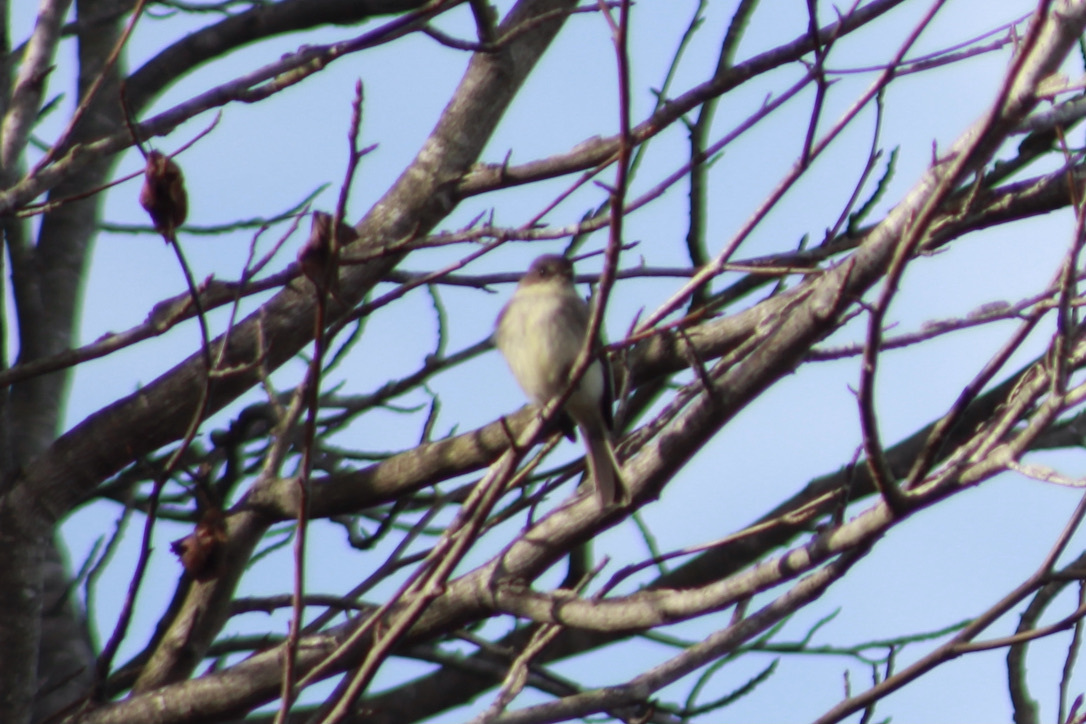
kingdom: Animalia
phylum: Chordata
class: Aves
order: Passeriformes
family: Tyrannidae
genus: Sayornis
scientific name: Sayornis phoebe
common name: Eastern phoebe
